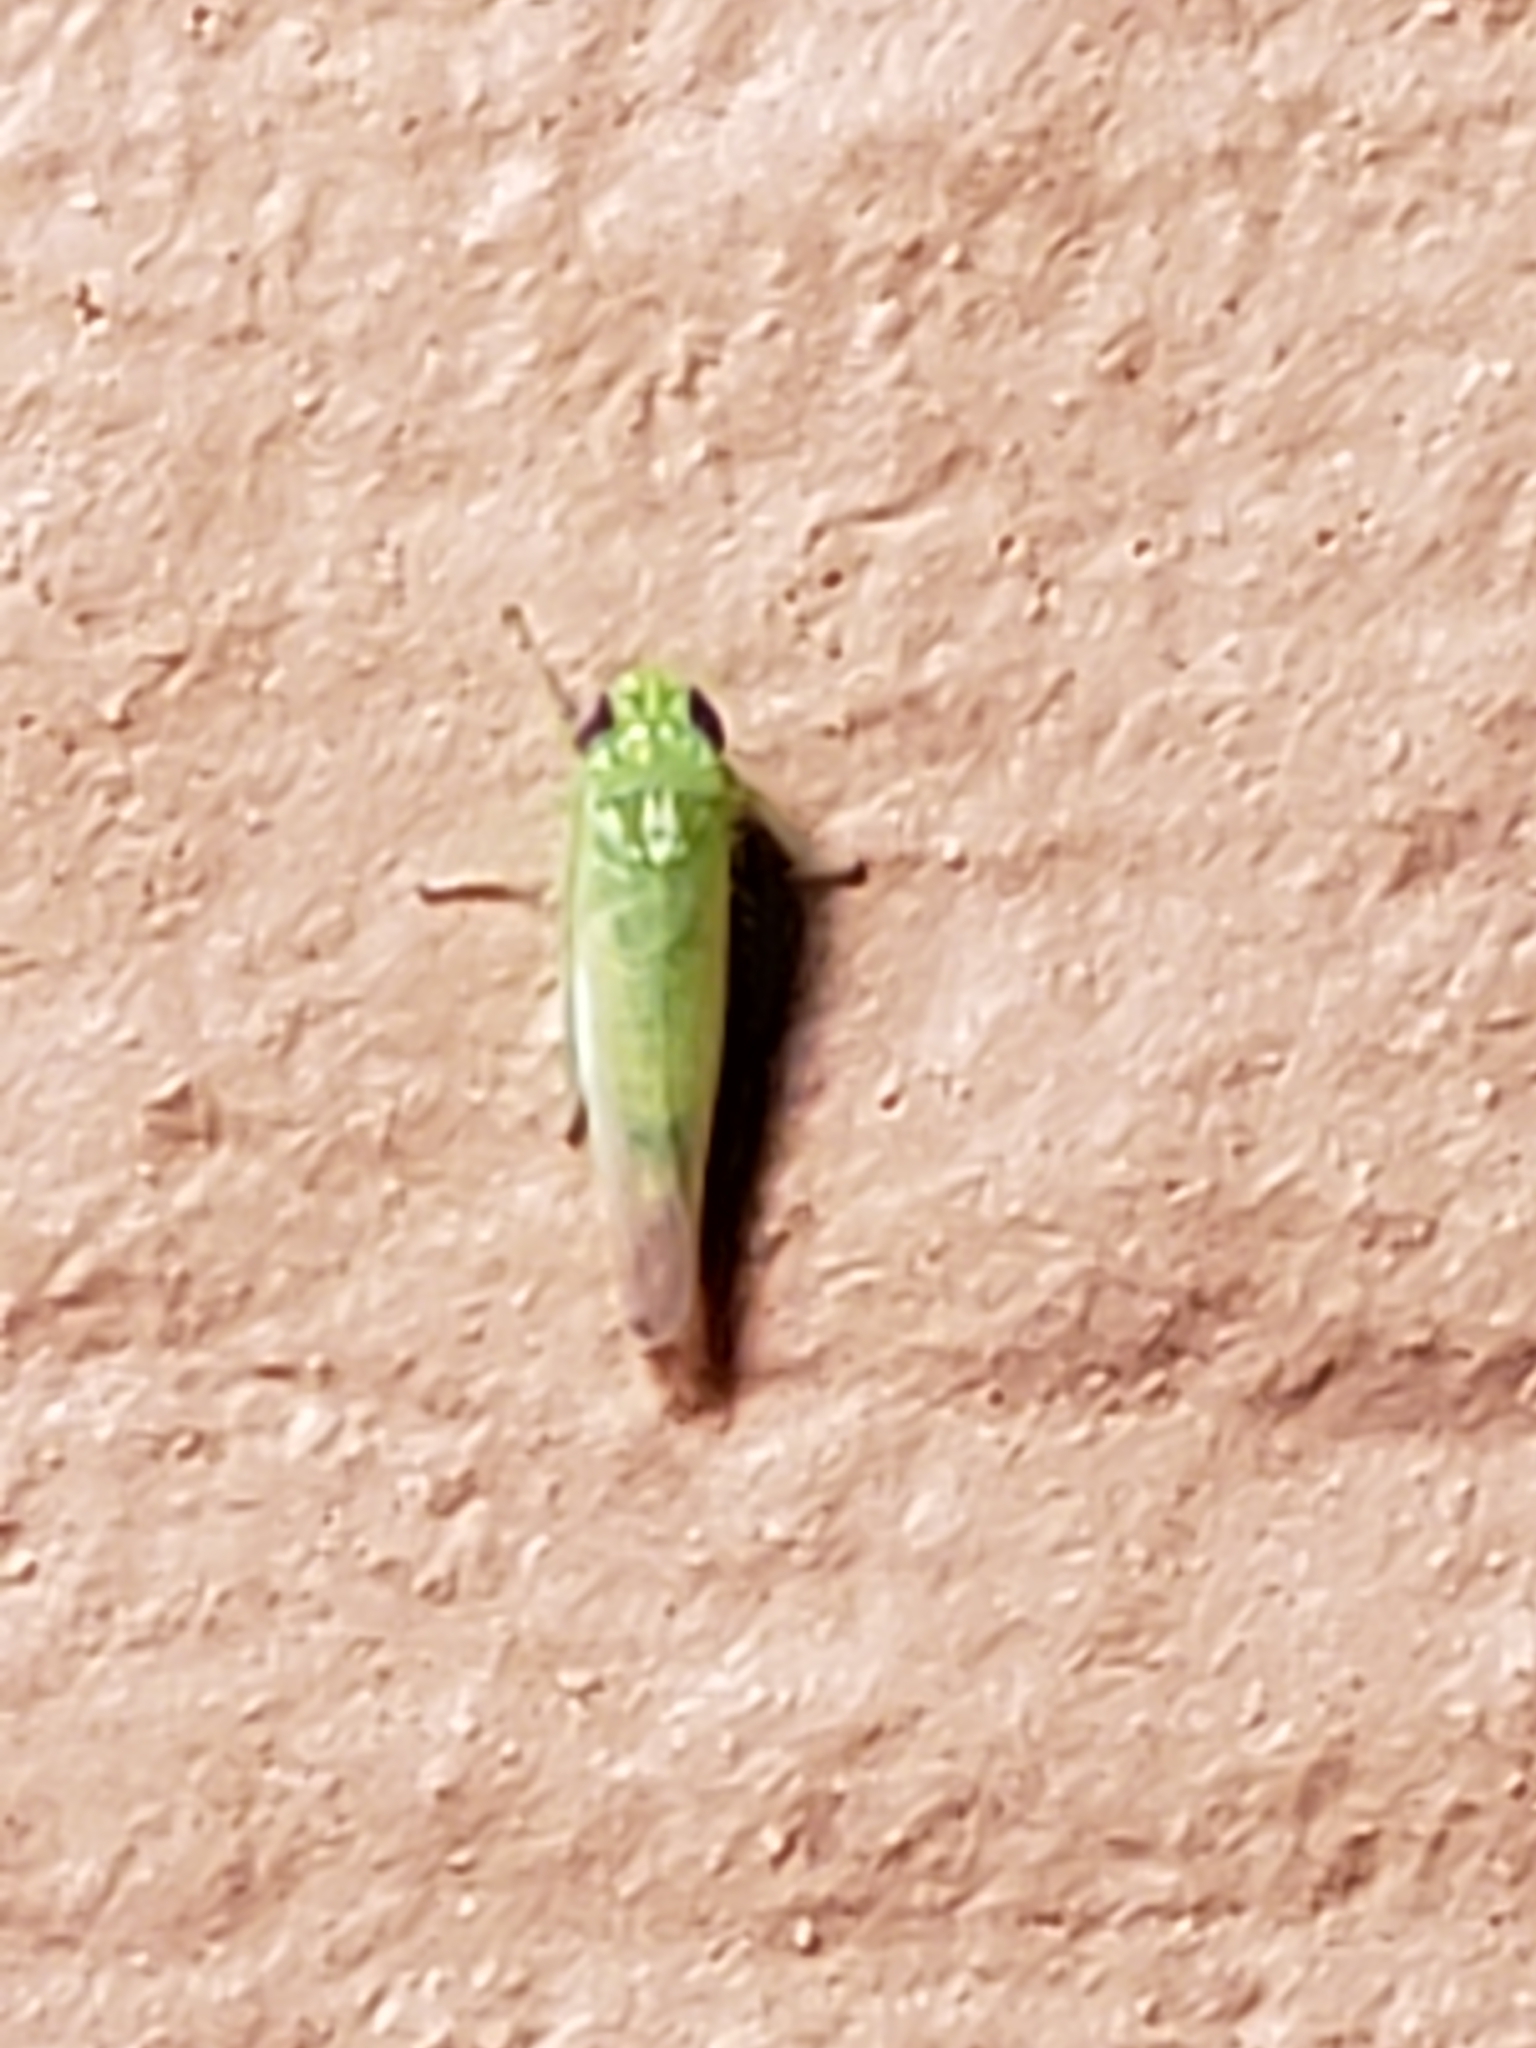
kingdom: Animalia
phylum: Arthropoda
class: Insecta
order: Hemiptera
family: Cicadellidae
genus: Empoasca
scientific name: Empoasca fabae
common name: Potato leafhopper
